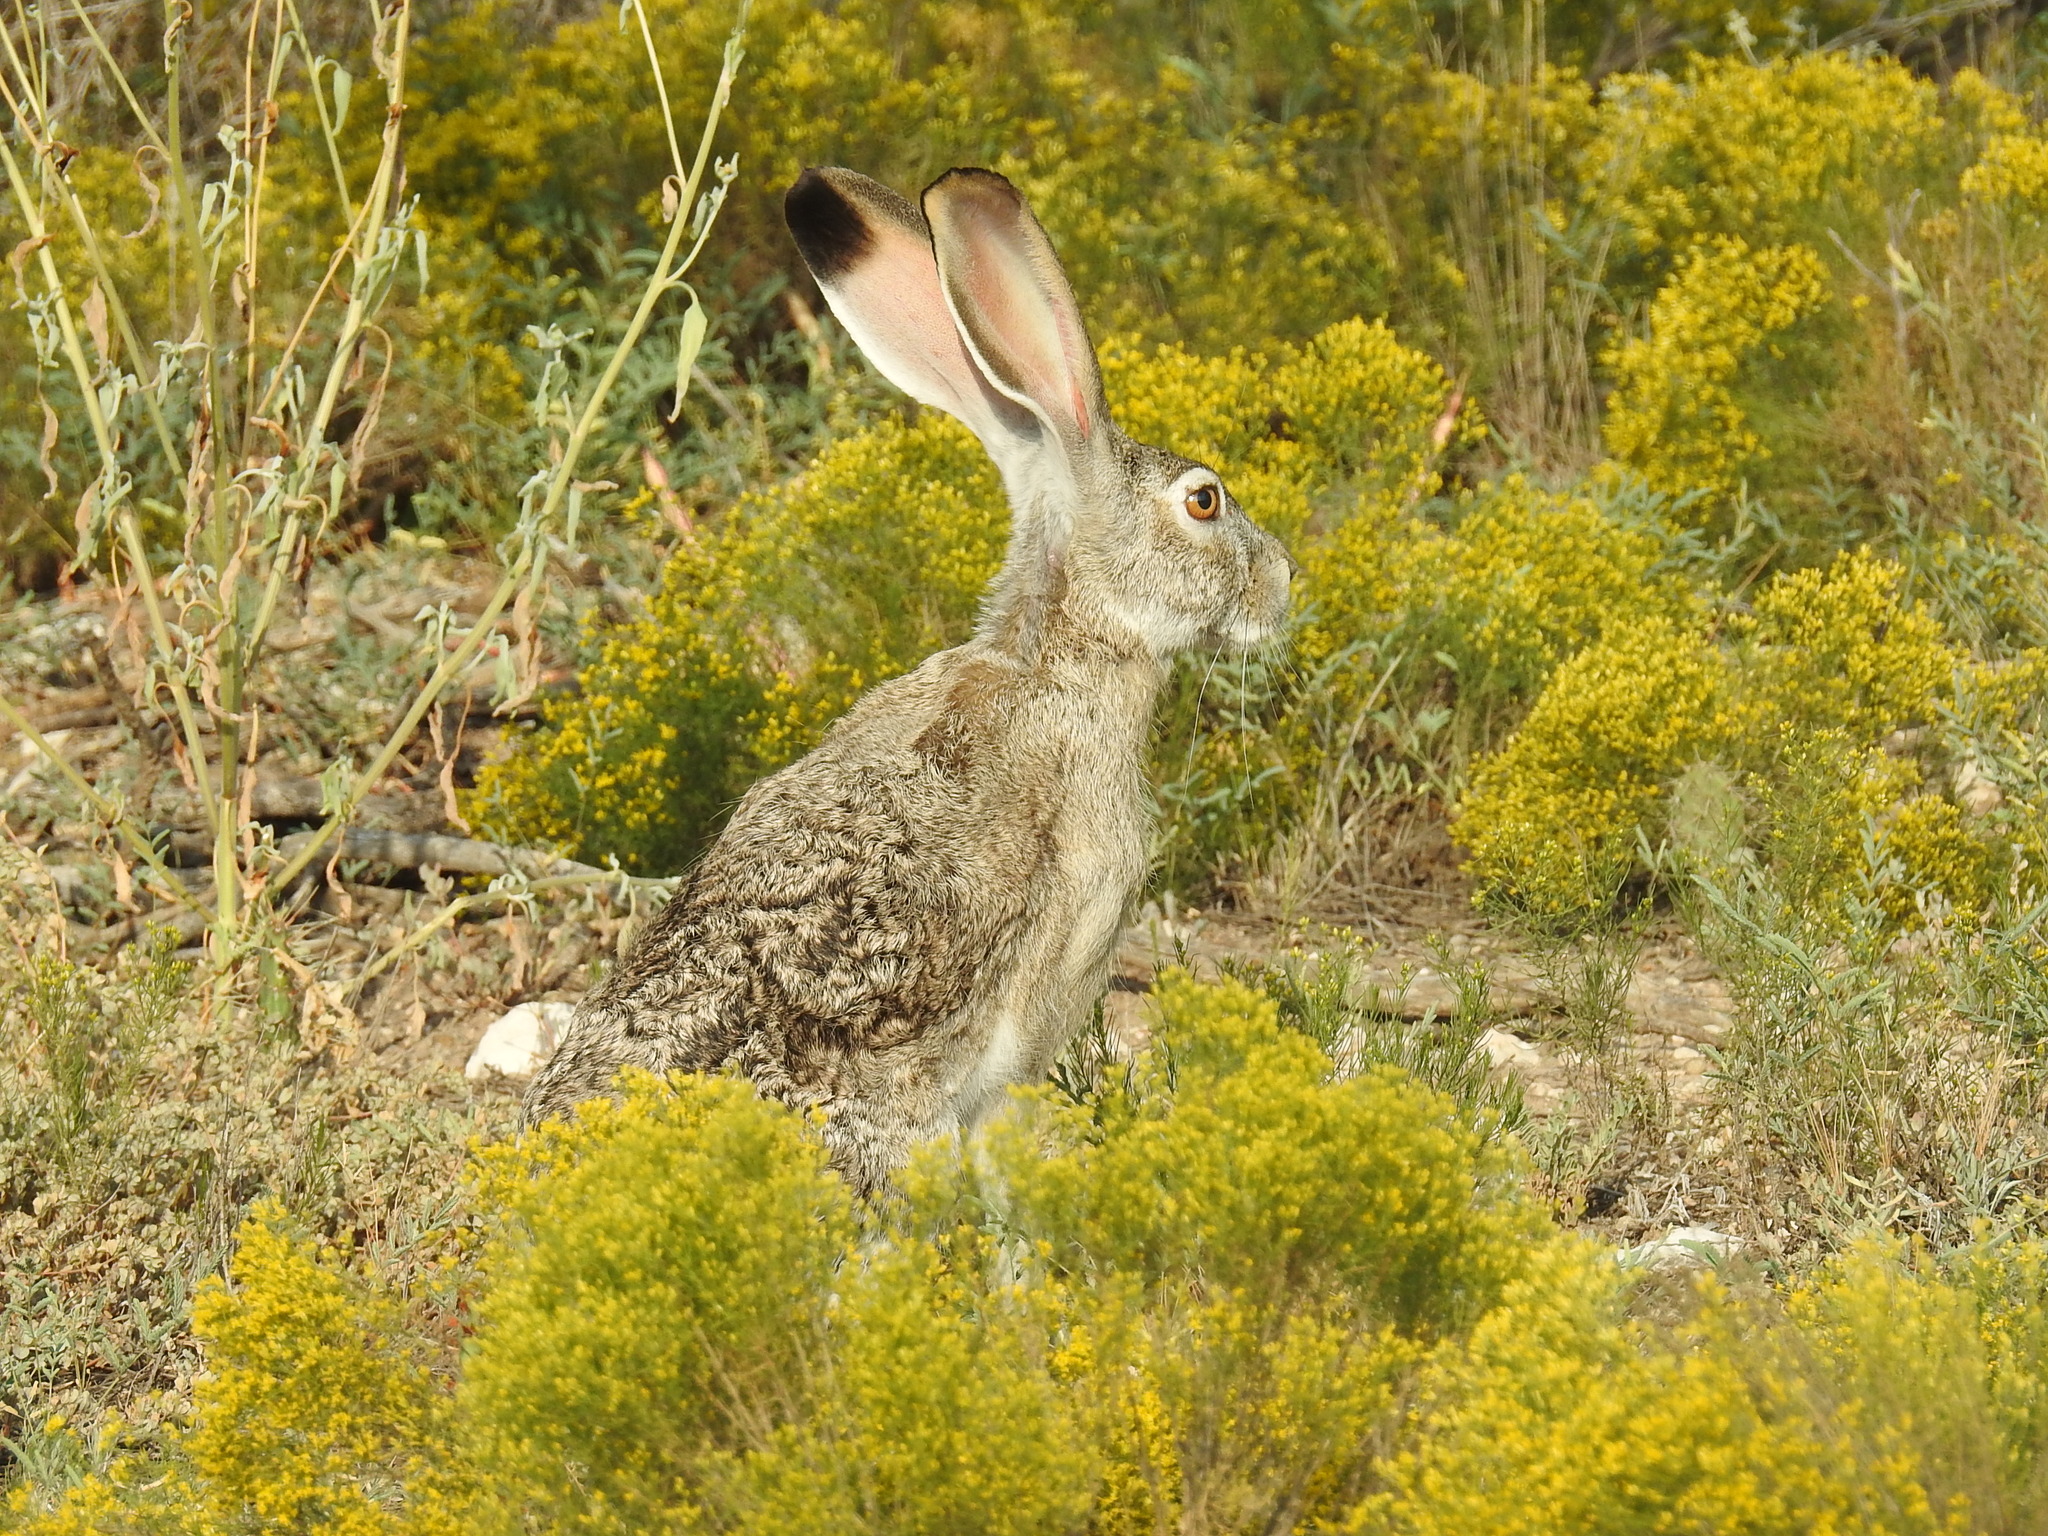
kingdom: Animalia
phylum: Chordata
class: Mammalia
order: Lagomorpha
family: Leporidae
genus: Lepus
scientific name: Lepus californicus
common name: Black-tailed jackrabbit
